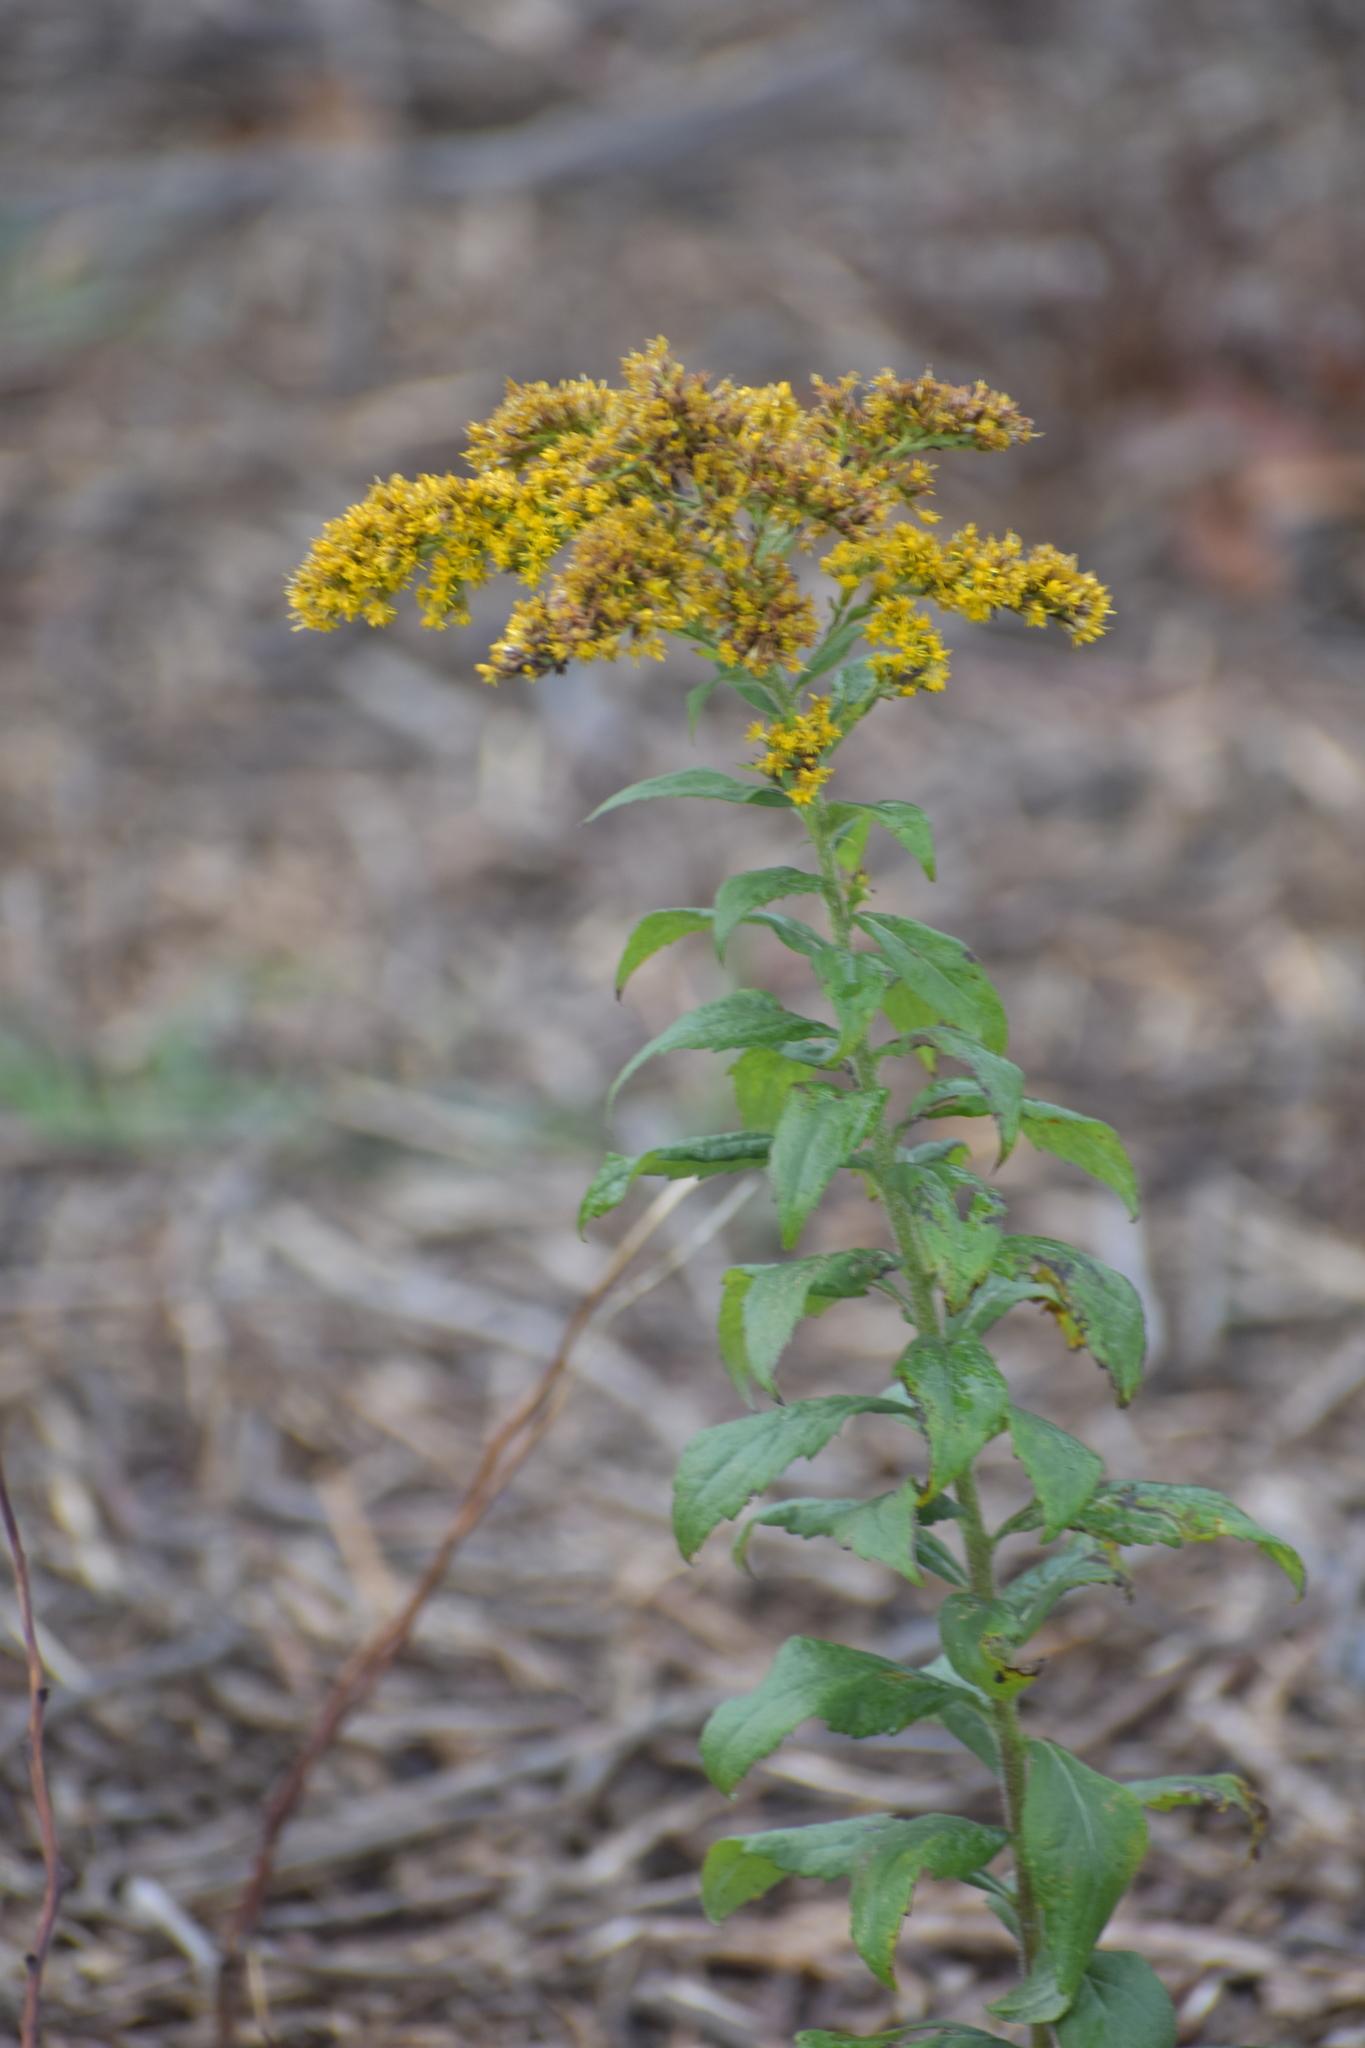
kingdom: Plantae
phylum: Tracheophyta
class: Magnoliopsida
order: Asterales
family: Asteraceae
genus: Solidago
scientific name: Solidago rugosa
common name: Rough-stemmed goldenrod
